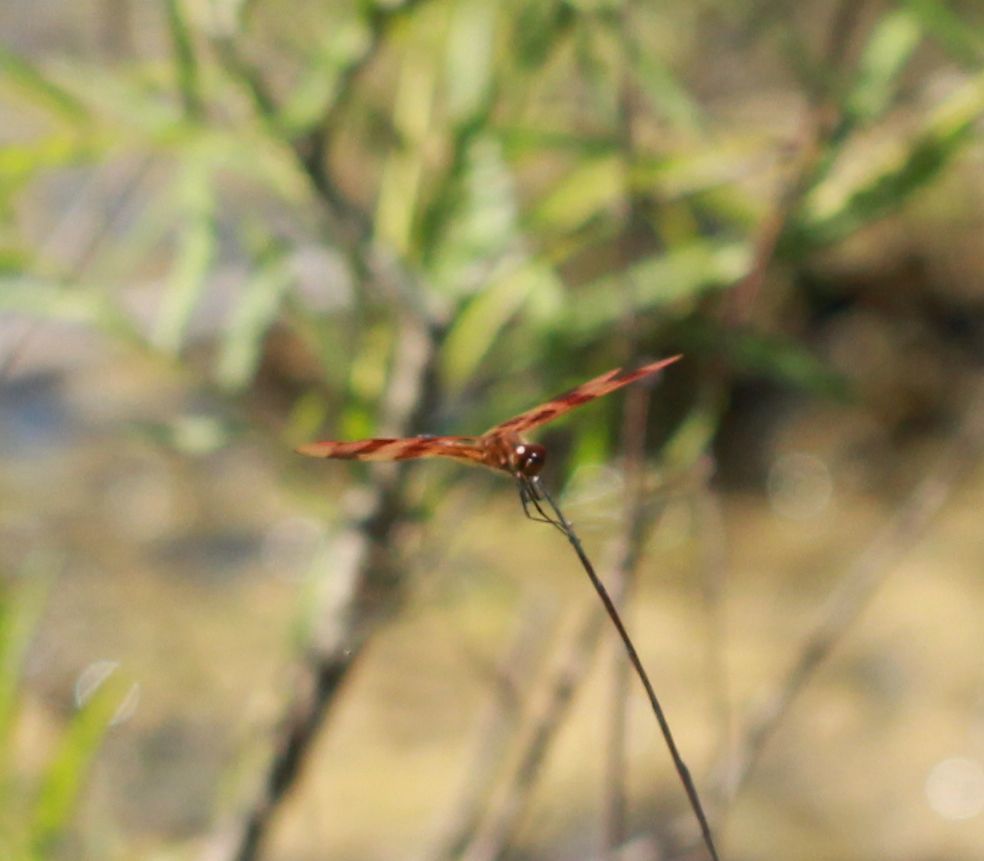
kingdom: Animalia
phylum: Arthropoda
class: Insecta
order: Odonata
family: Libellulidae
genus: Celithemis
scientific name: Celithemis eponina
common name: Halloween pennant
